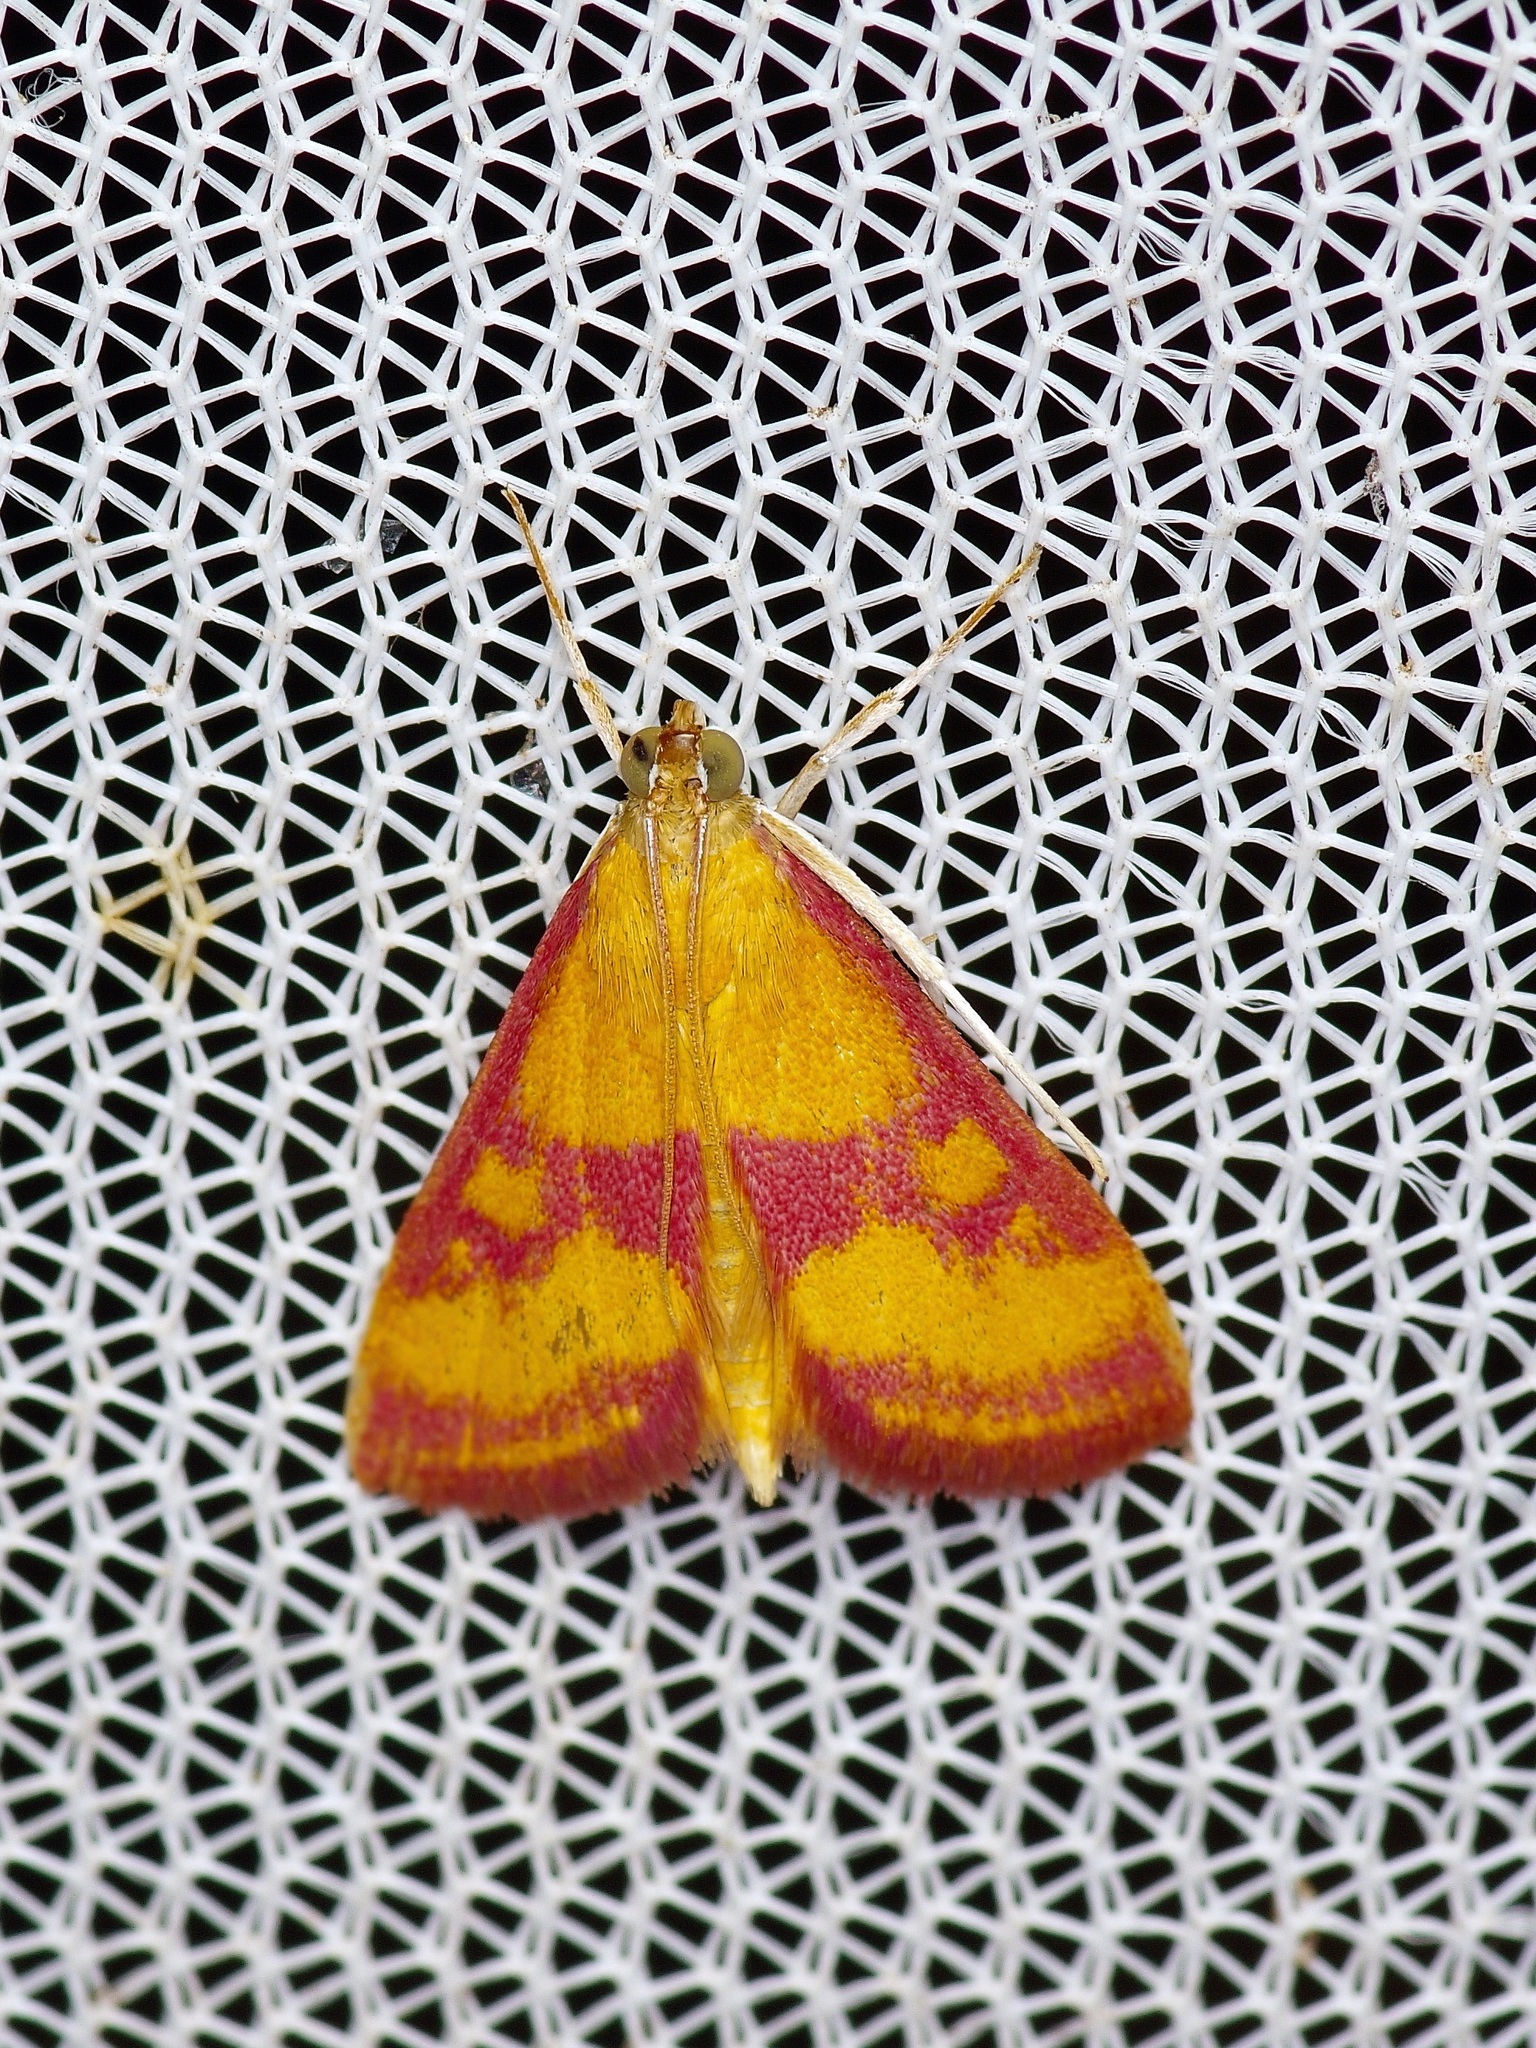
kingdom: Animalia
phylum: Arthropoda
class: Insecta
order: Lepidoptera
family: Crambidae
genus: Pyrausta
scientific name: Pyrausta laticlavia
